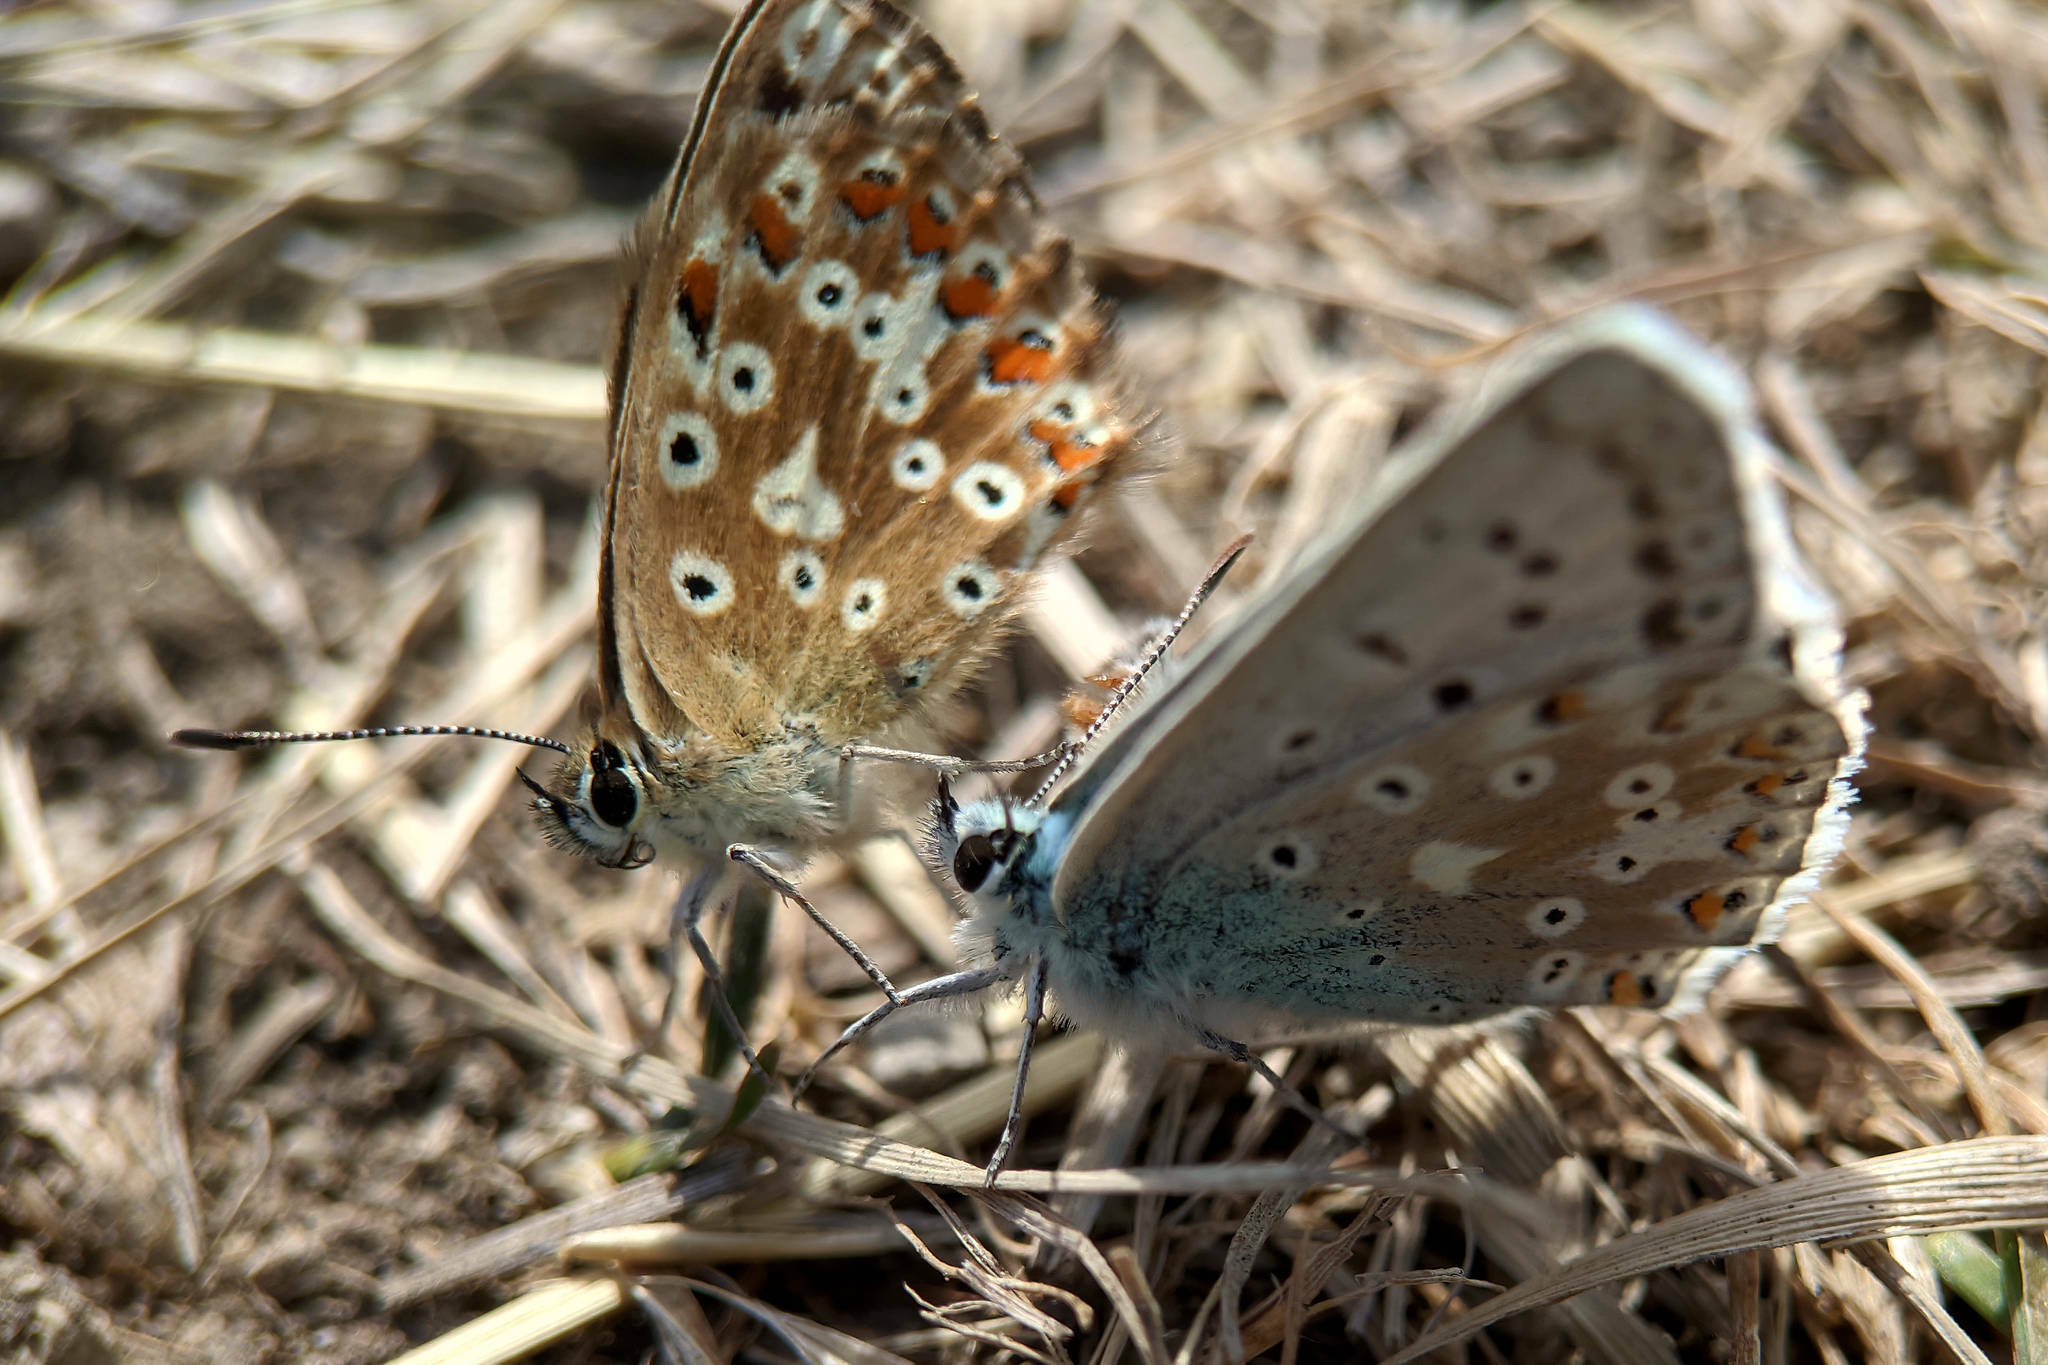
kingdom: Animalia
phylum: Arthropoda
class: Insecta
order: Lepidoptera
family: Lycaenidae
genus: Lysandra
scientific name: Lysandra coridon
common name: Chalkhill blue
